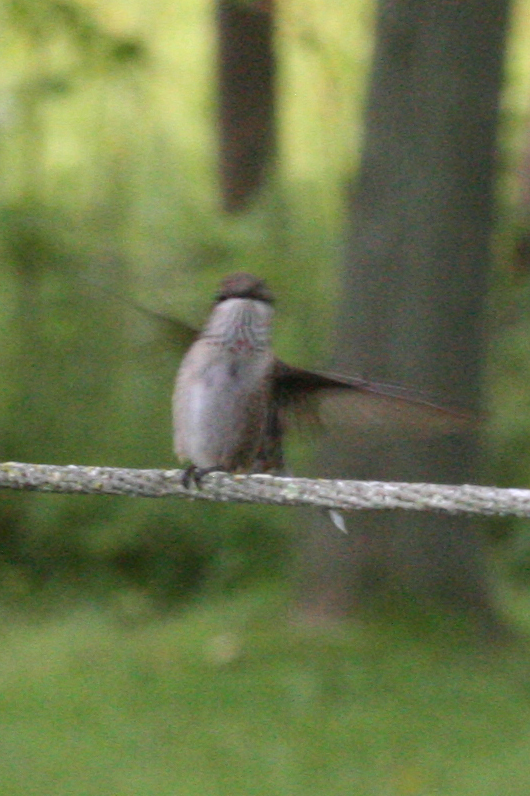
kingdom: Animalia
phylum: Chordata
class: Aves
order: Apodiformes
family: Trochilidae
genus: Archilochus
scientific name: Archilochus colubris
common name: Ruby-throated hummingbird
